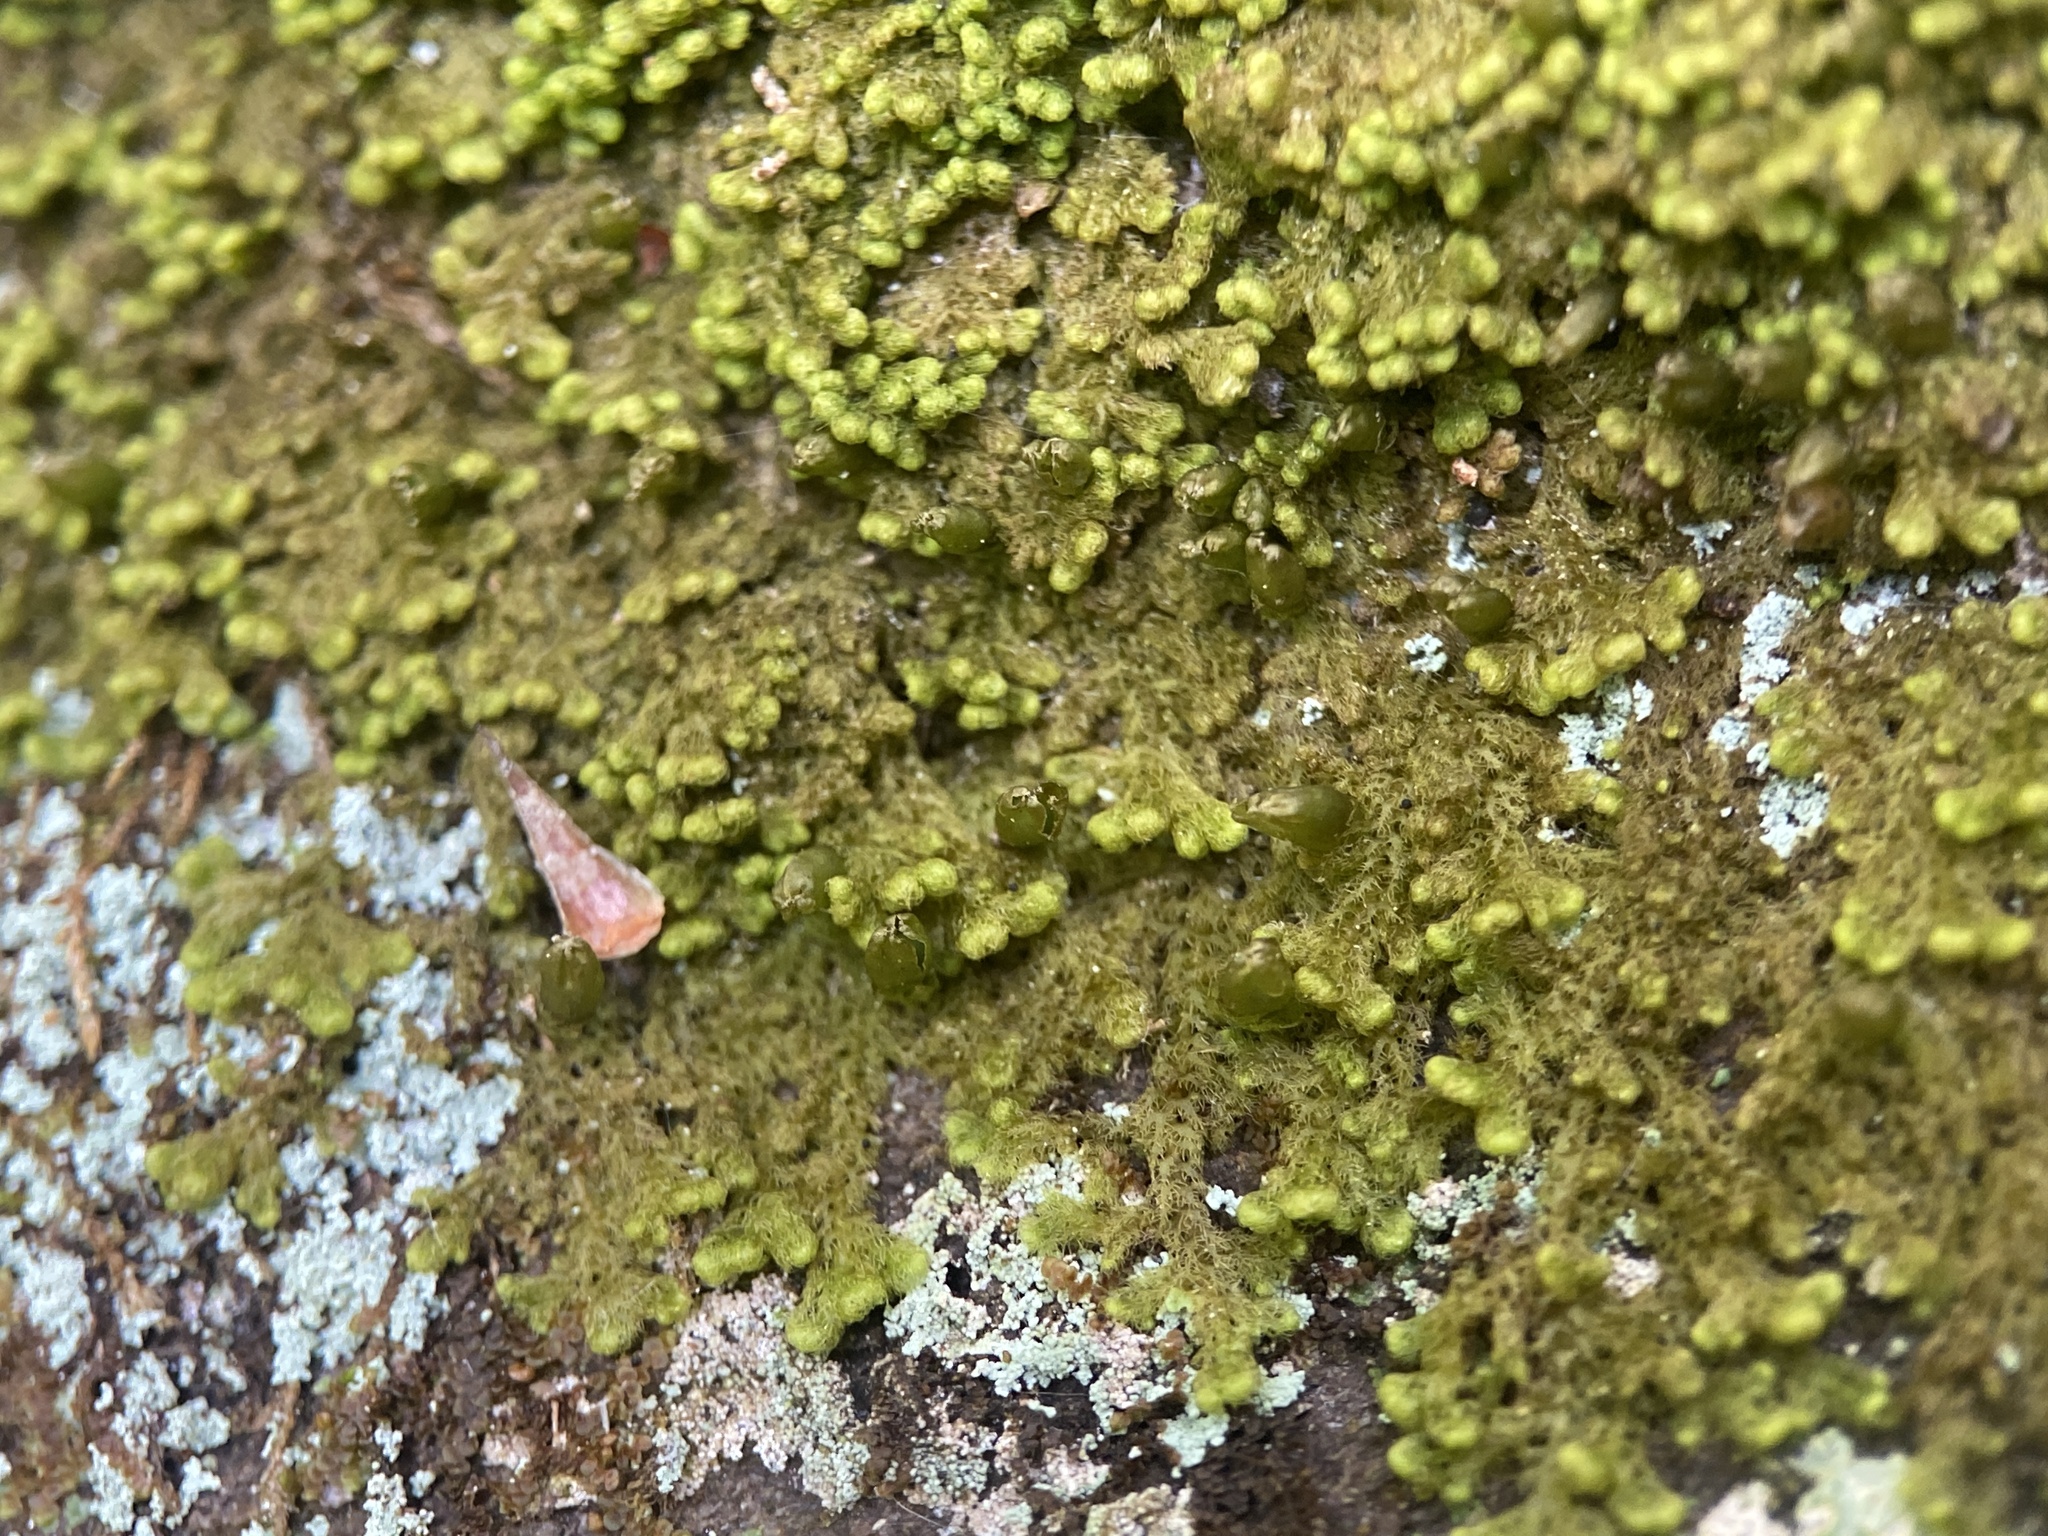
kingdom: Plantae
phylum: Marchantiophyta
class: Jungermanniopsida
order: Ptilidiales
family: Ptilidiaceae
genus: Ptilidium
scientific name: Ptilidium pulcherrimum
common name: Tree fringewort
